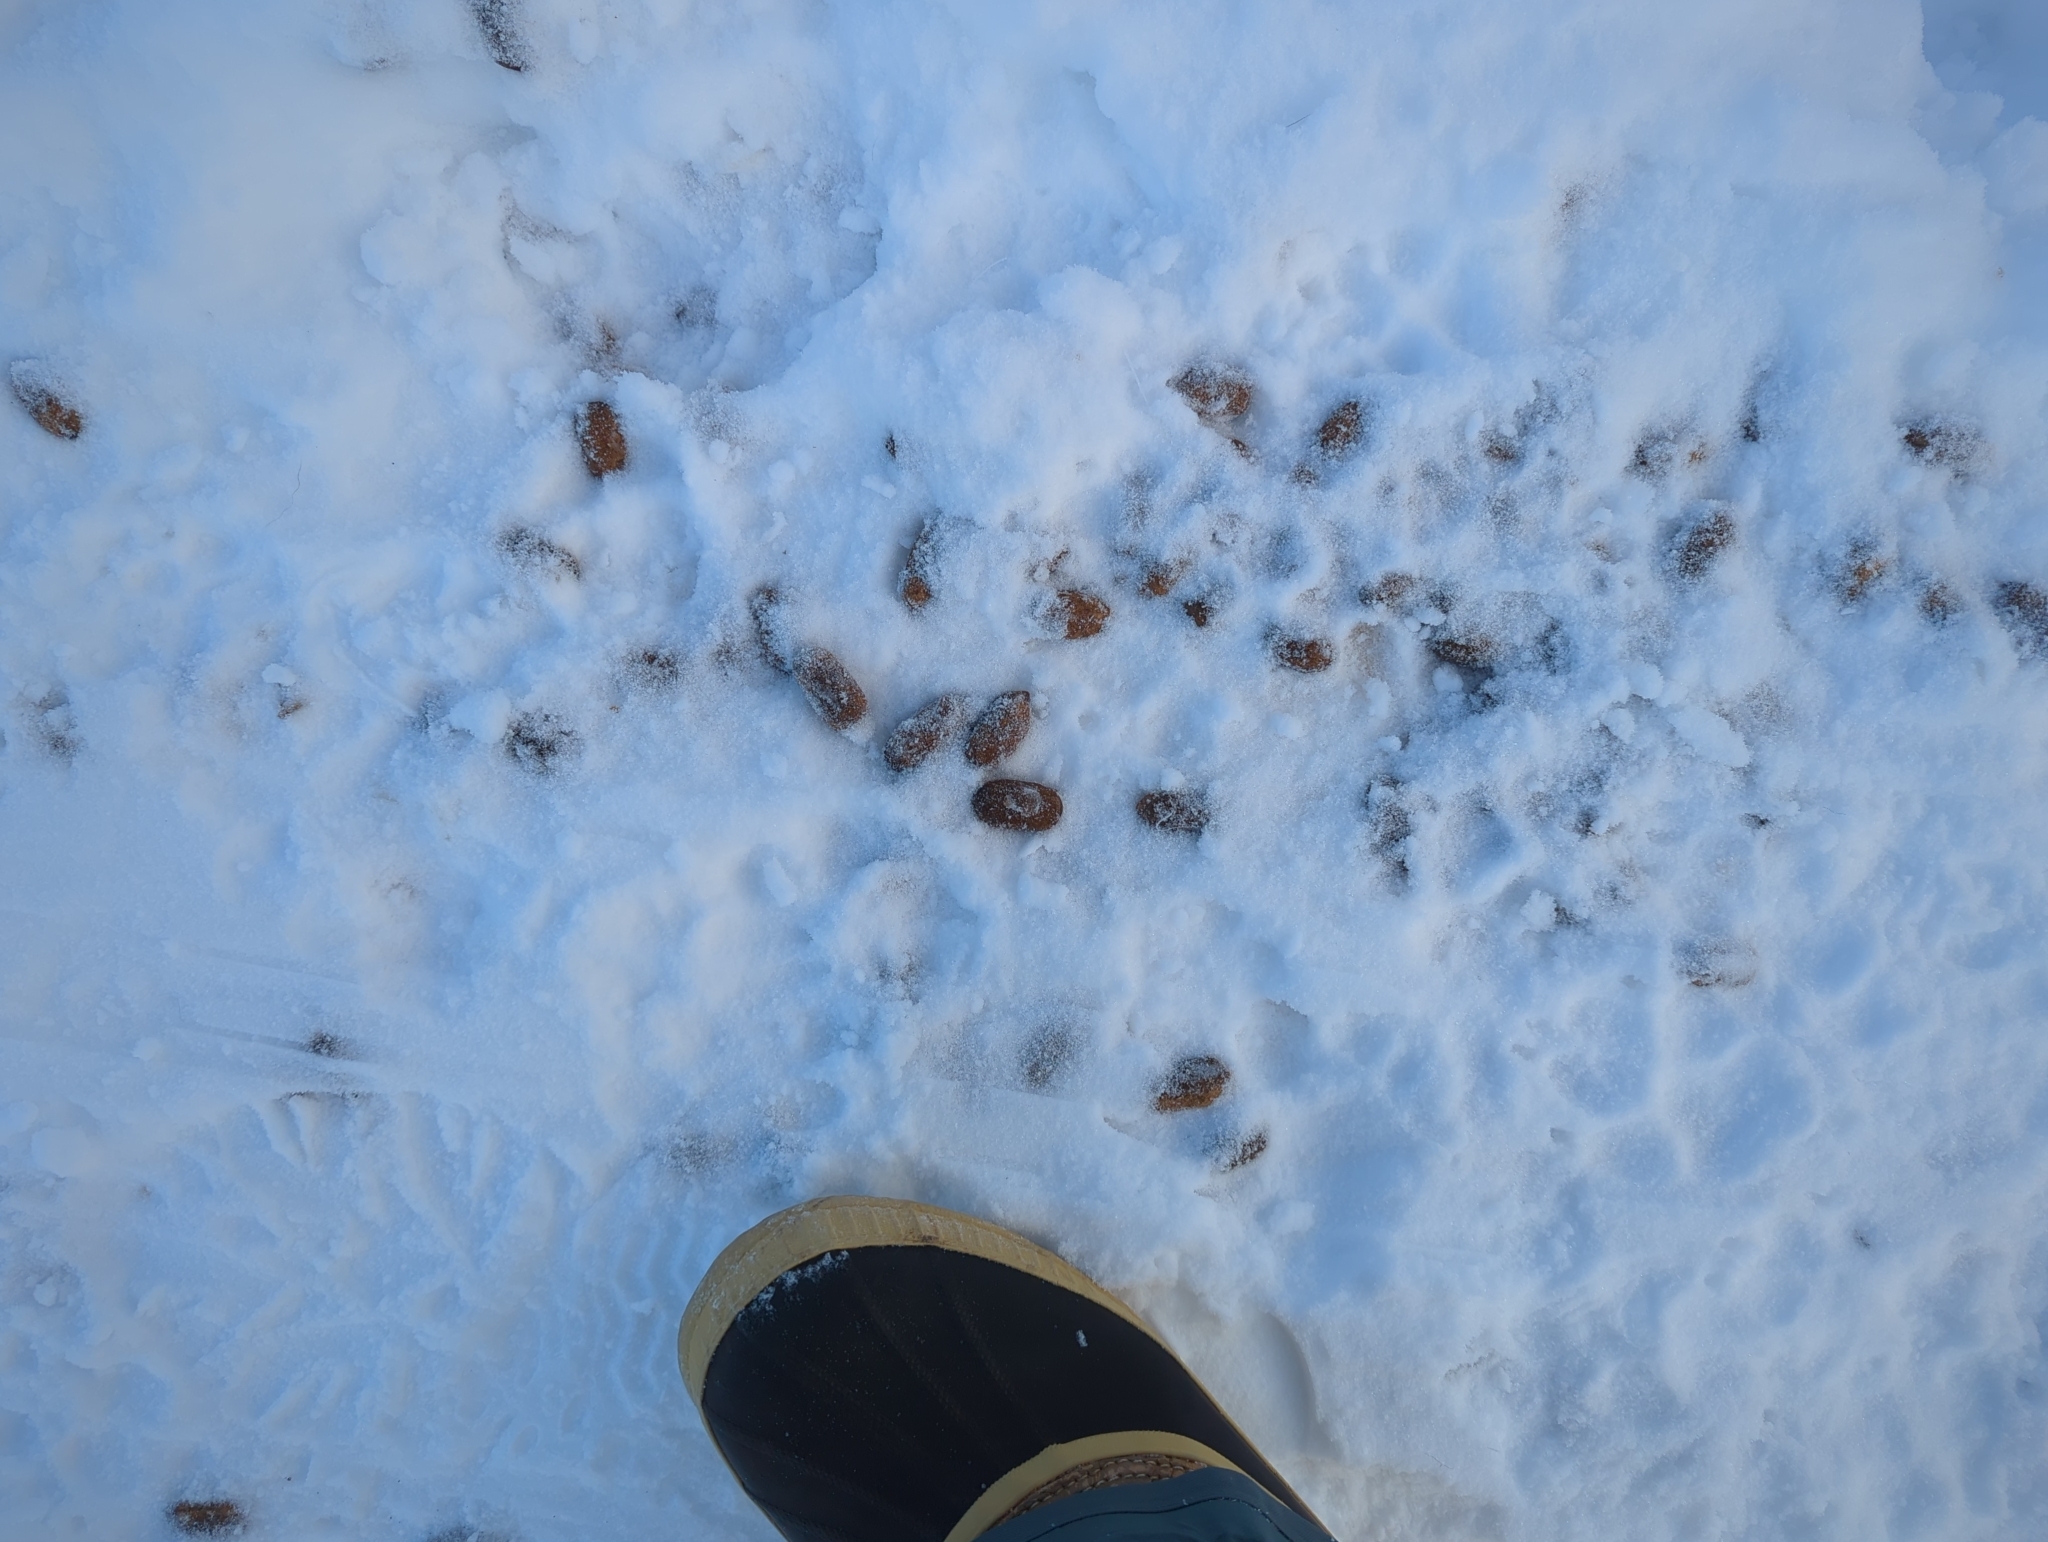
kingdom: Animalia
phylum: Chordata
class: Mammalia
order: Artiodactyla
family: Cervidae
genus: Alces
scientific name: Alces alces
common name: Moose
